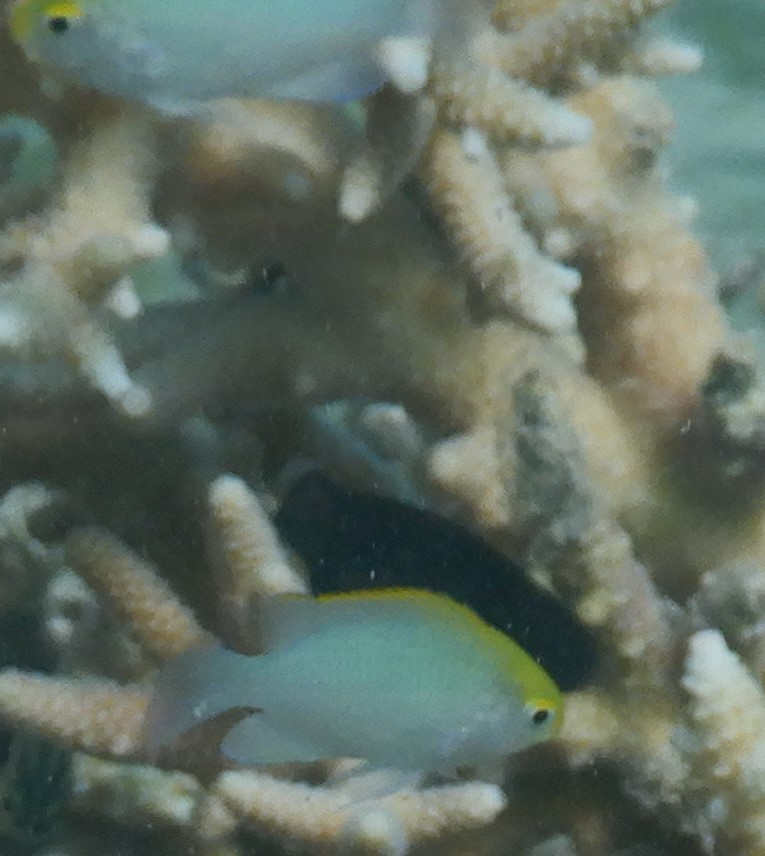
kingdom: Animalia
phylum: Chordata
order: Perciformes
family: Pomacentridae
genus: Pomacentrus
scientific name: Pomacentrus aurifrons
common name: Yellowhead damselfish
